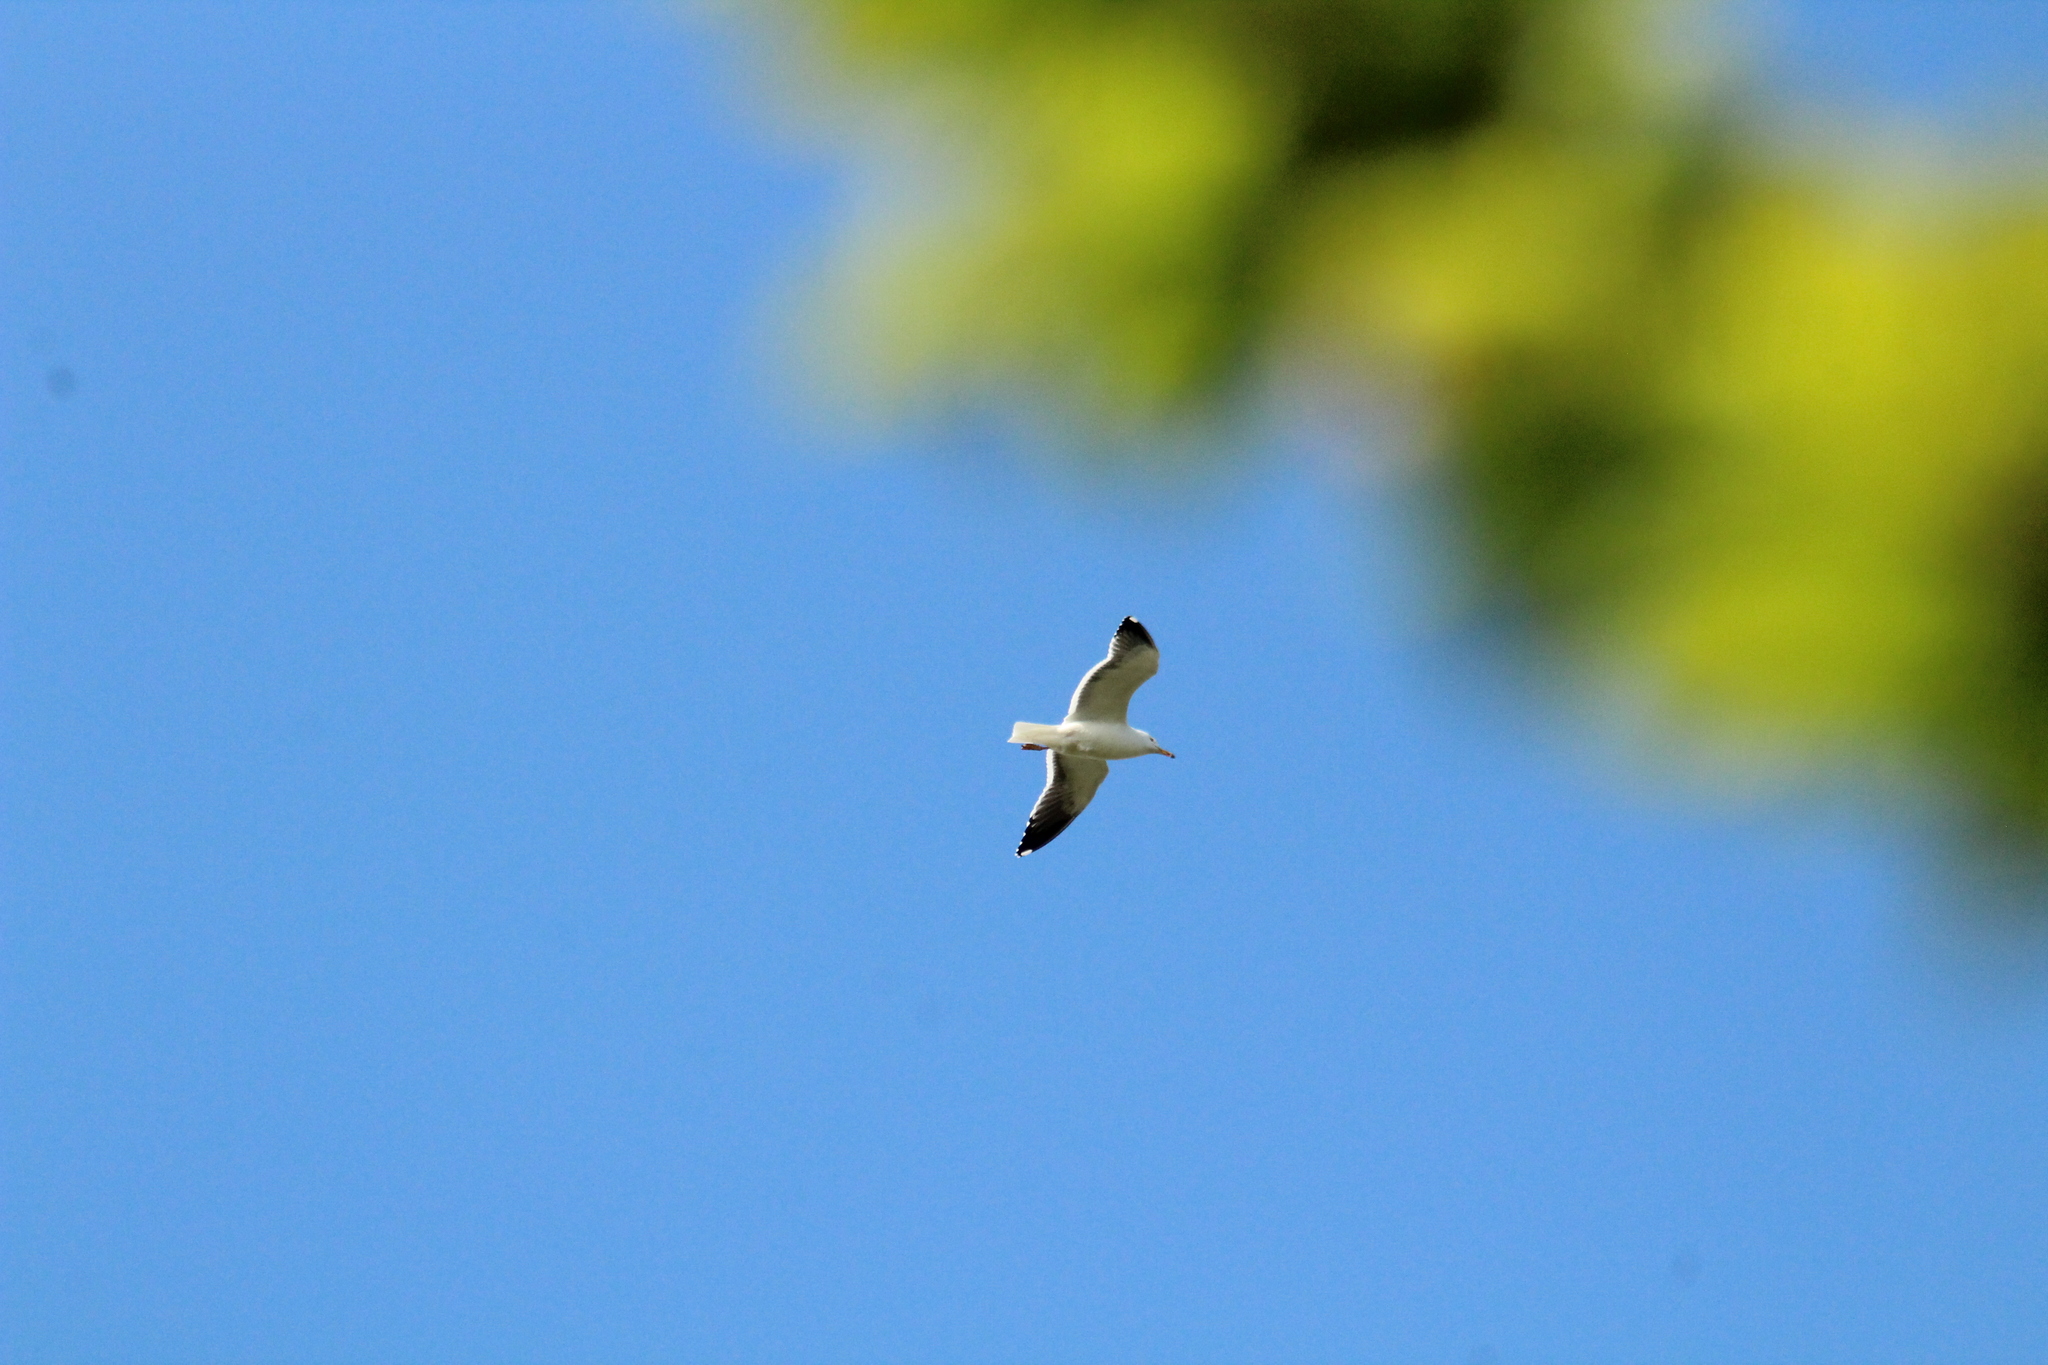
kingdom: Animalia
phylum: Chordata
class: Aves
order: Charadriiformes
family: Laridae
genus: Larus
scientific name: Larus fuscus
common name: Lesser black-backed gull
